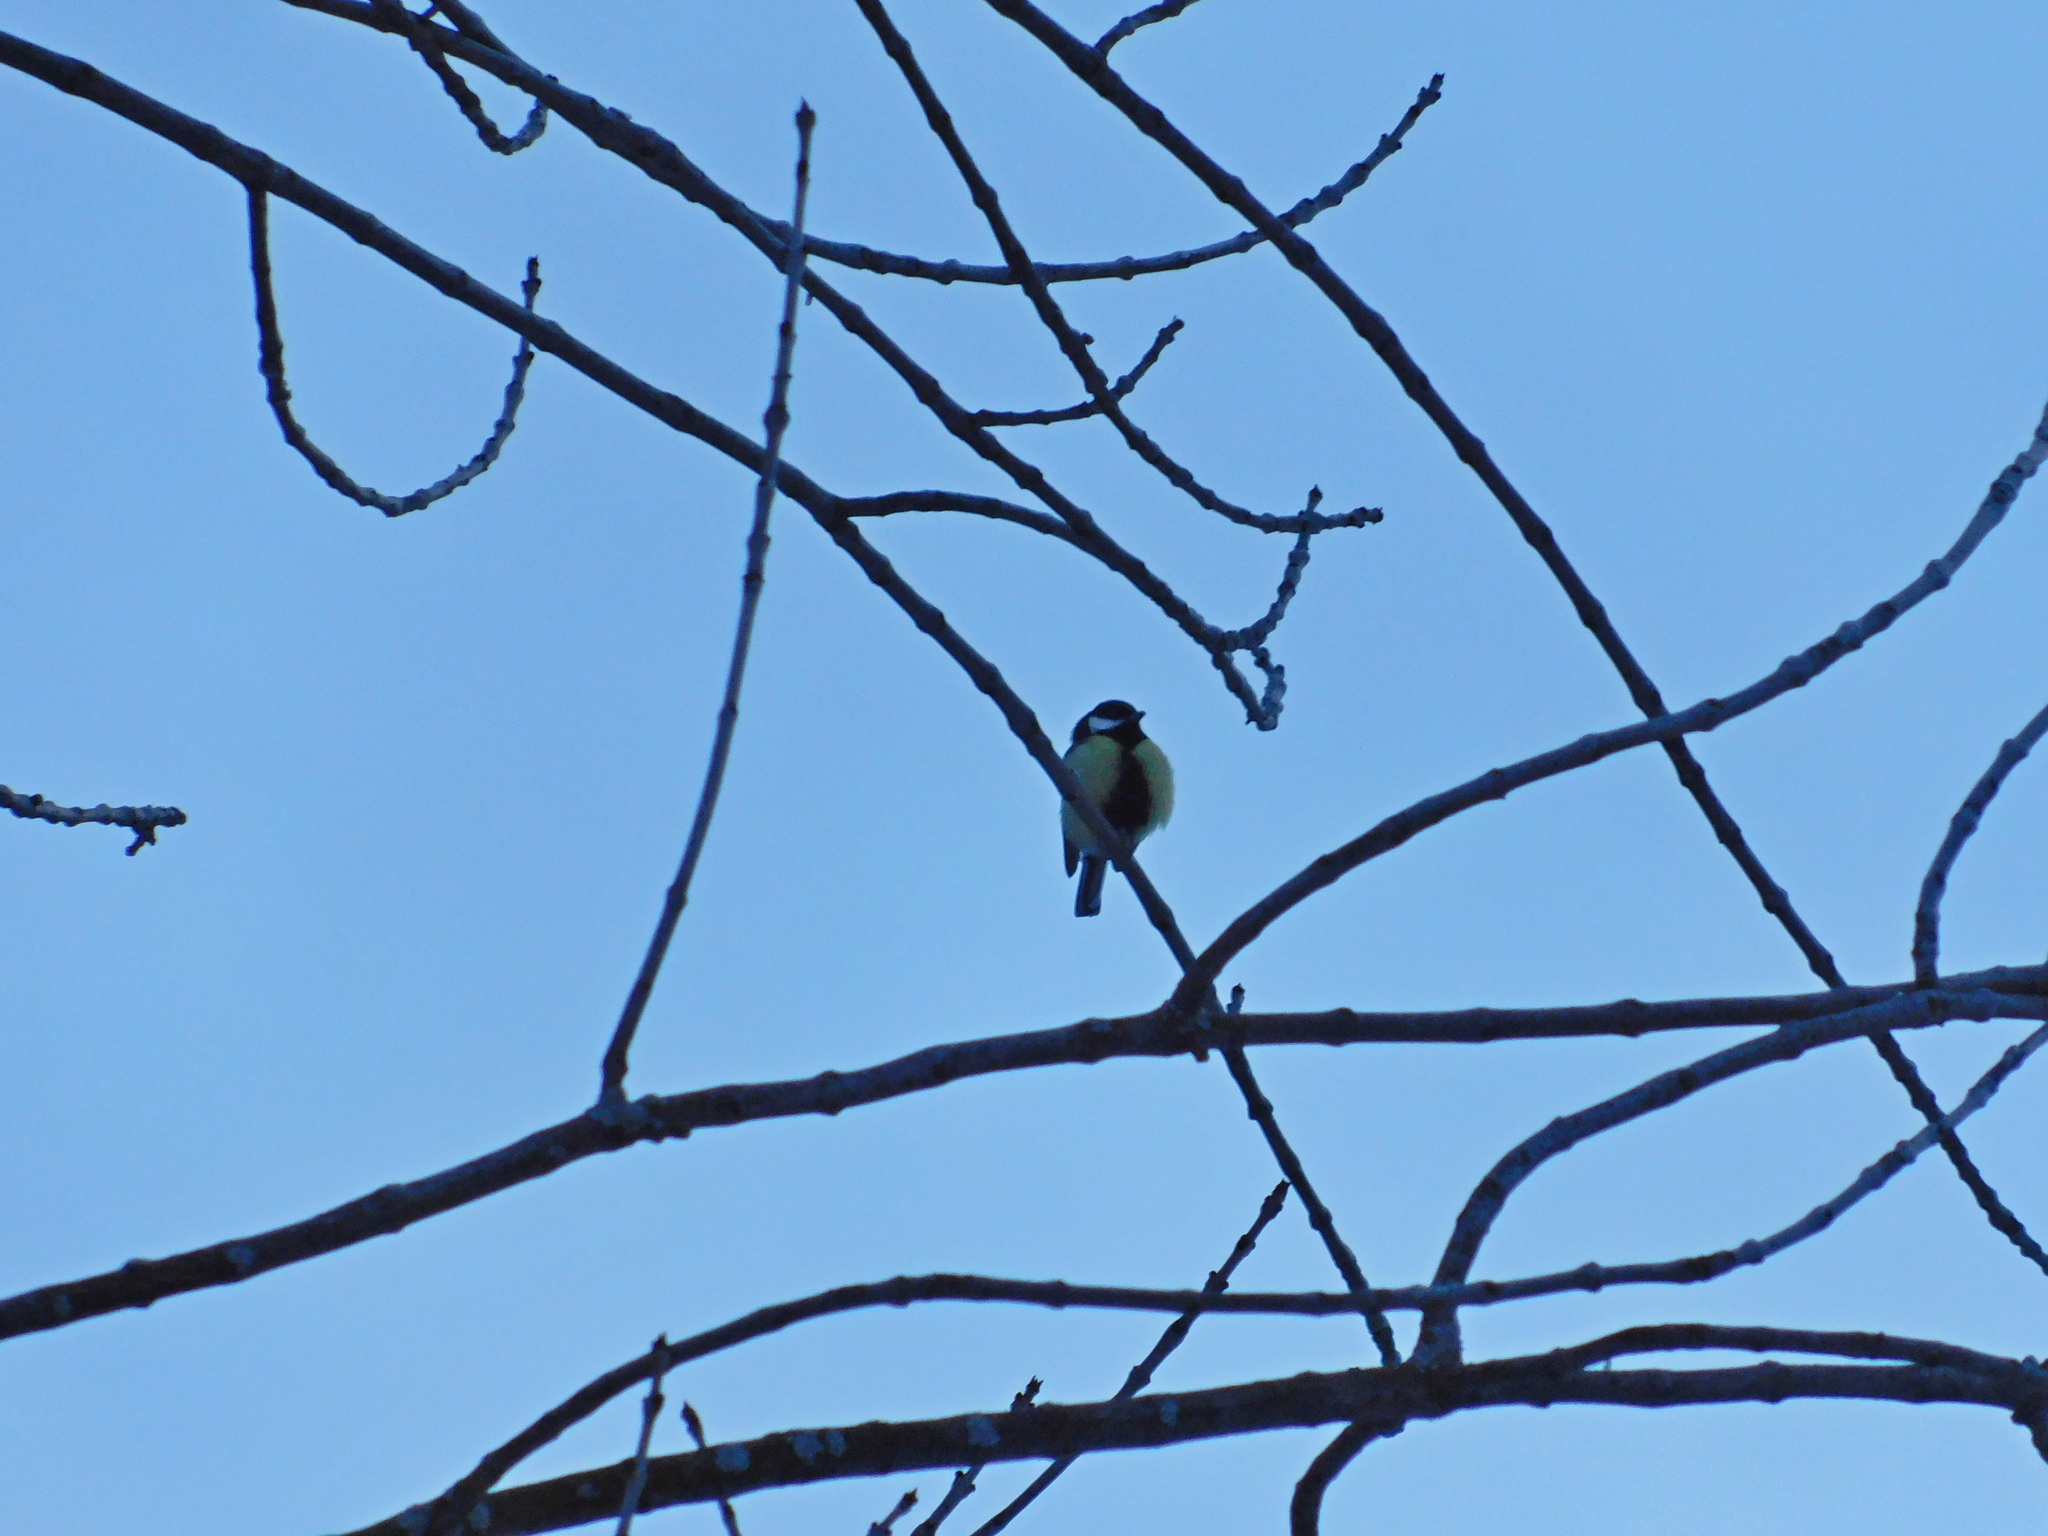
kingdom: Animalia
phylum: Chordata
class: Aves
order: Passeriformes
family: Paridae
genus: Parus
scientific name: Parus major
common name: Great tit
